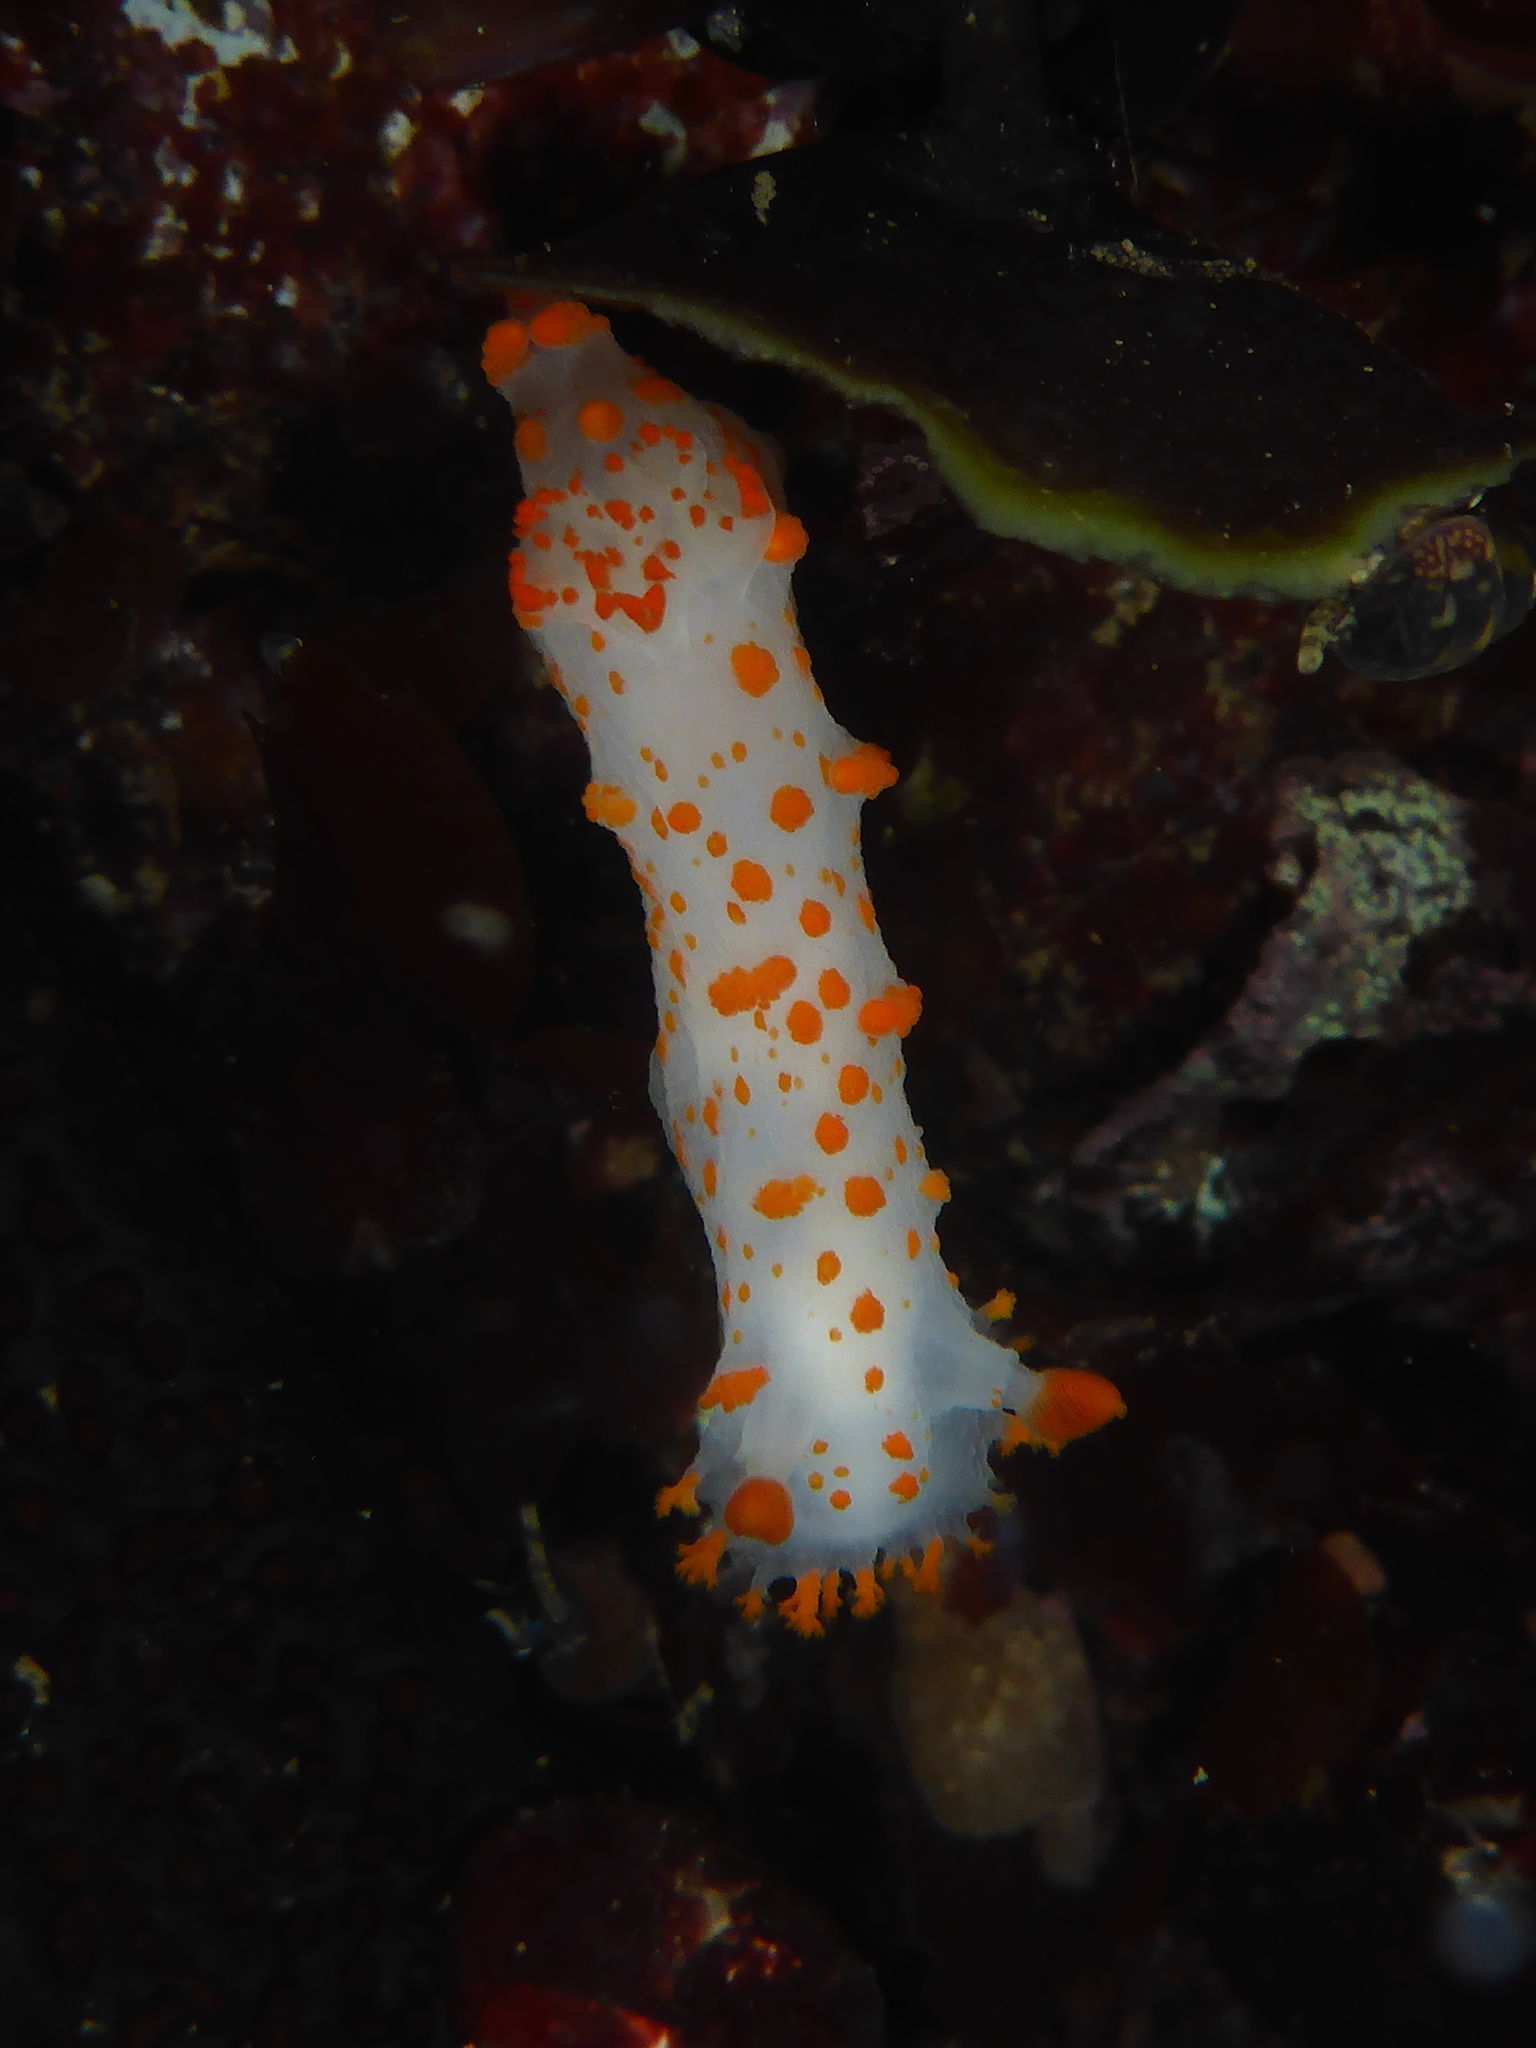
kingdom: Animalia
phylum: Mollusca
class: Gastropoda
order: Nudibranchia
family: Polyceridae
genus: Triopha
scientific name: Triopha catalinae
